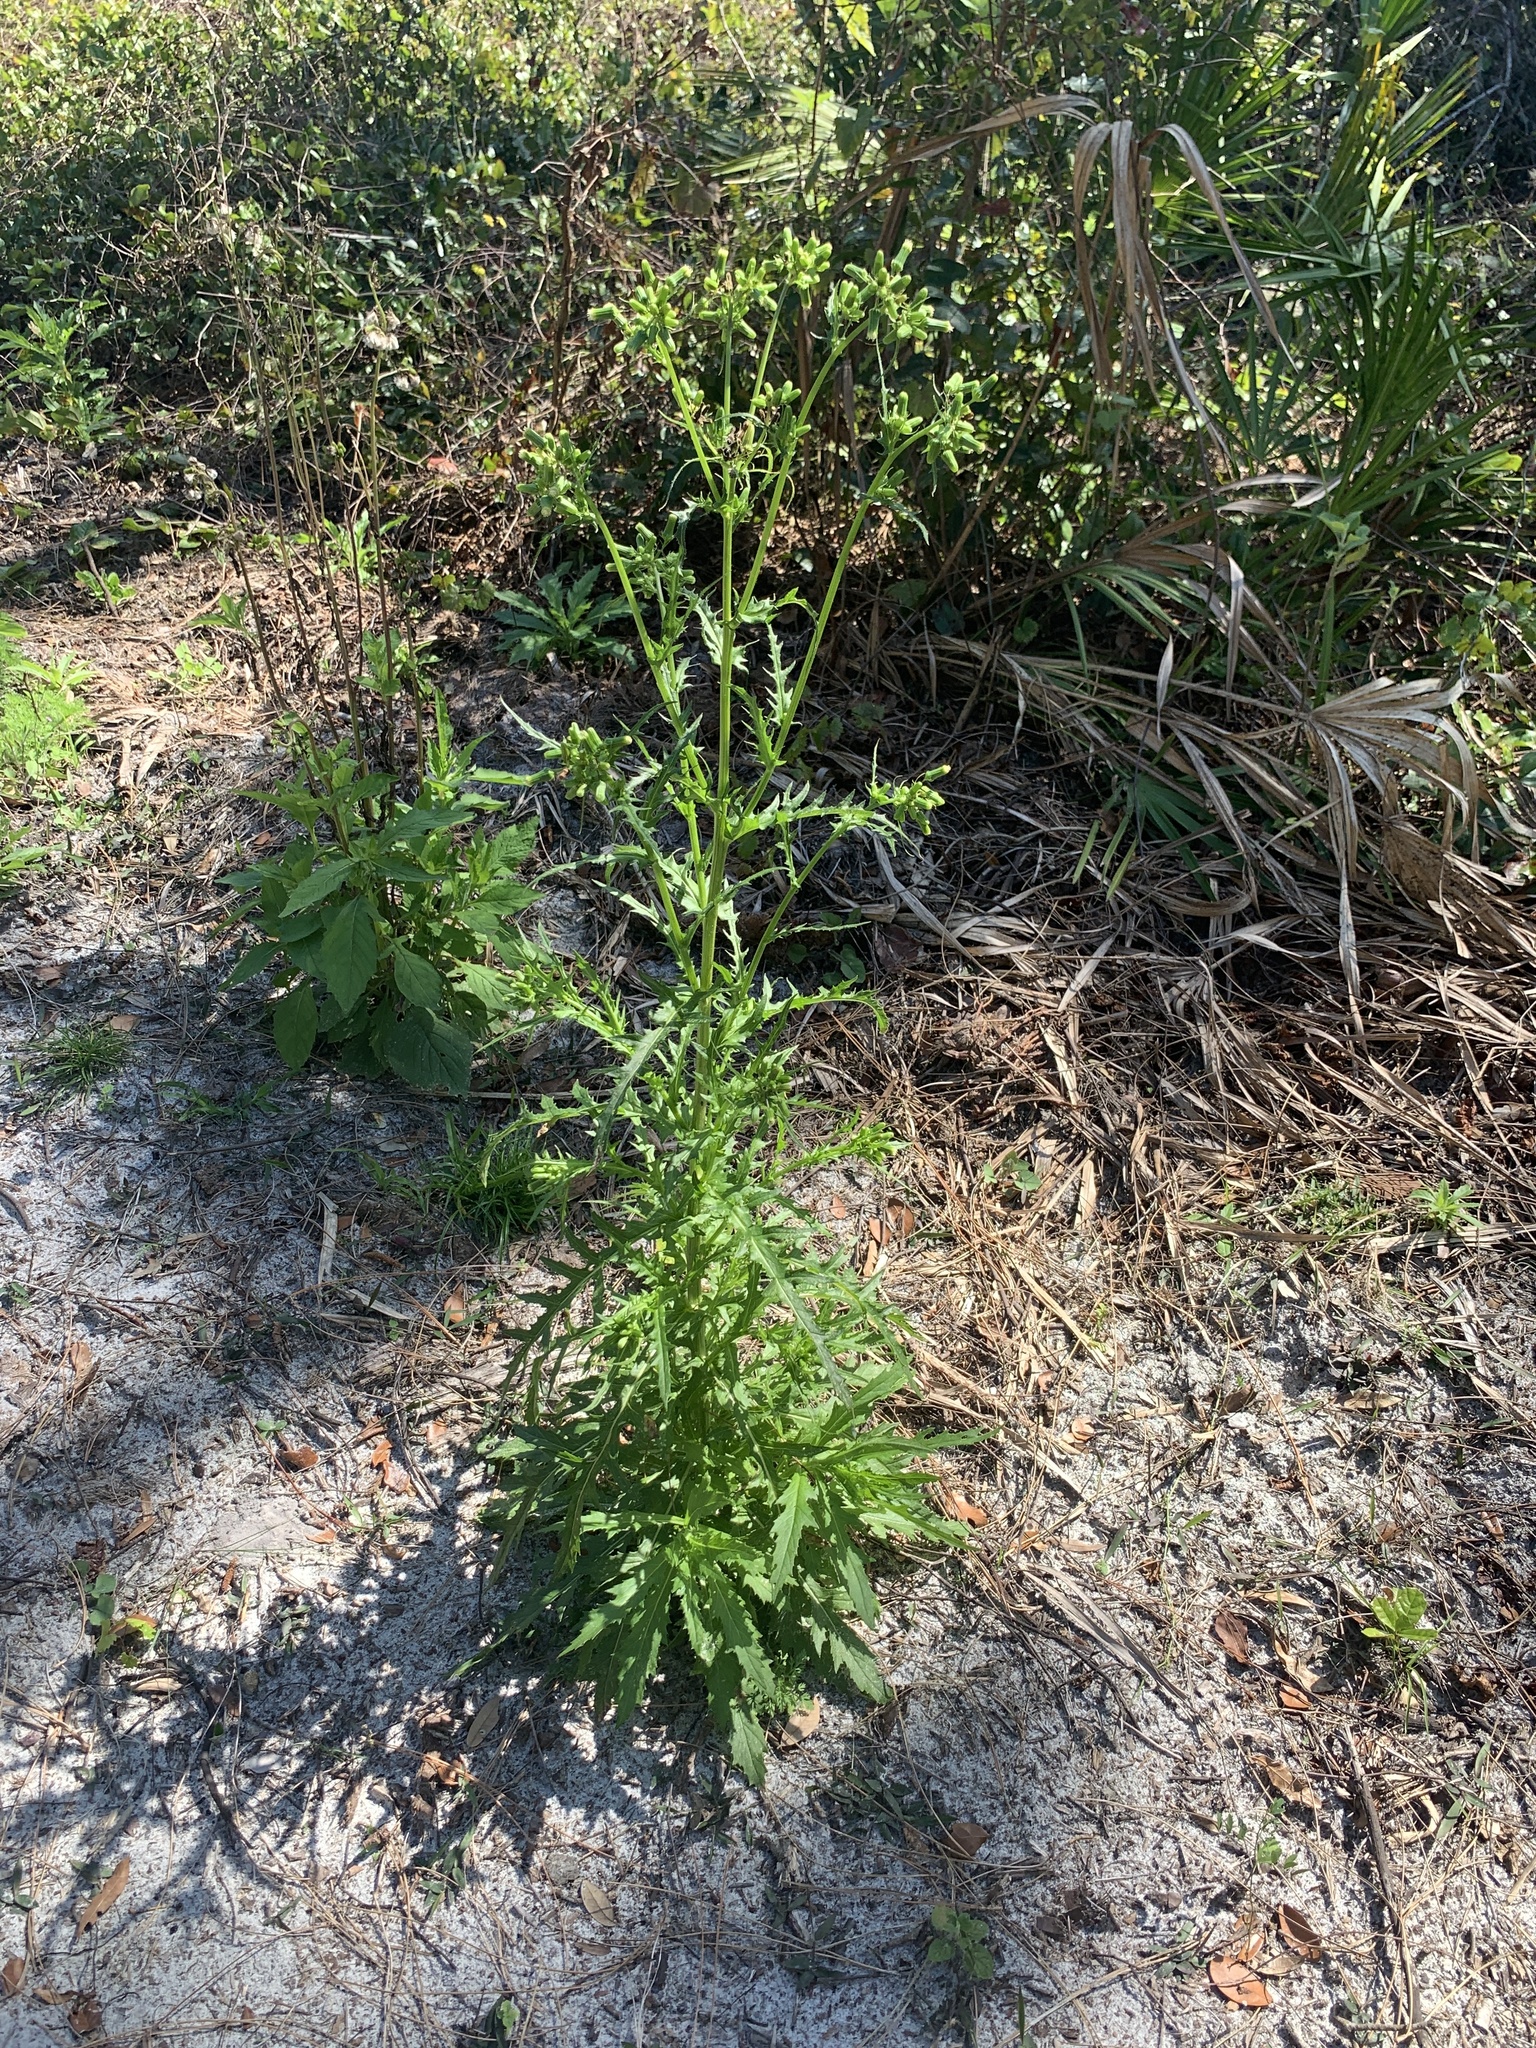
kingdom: Plantae
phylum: Tracheophyta
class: Magnoliopsida
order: Asterales
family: Asteraceae
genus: Erechtites
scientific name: Erechtites hieraciifolius
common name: American burnweed
